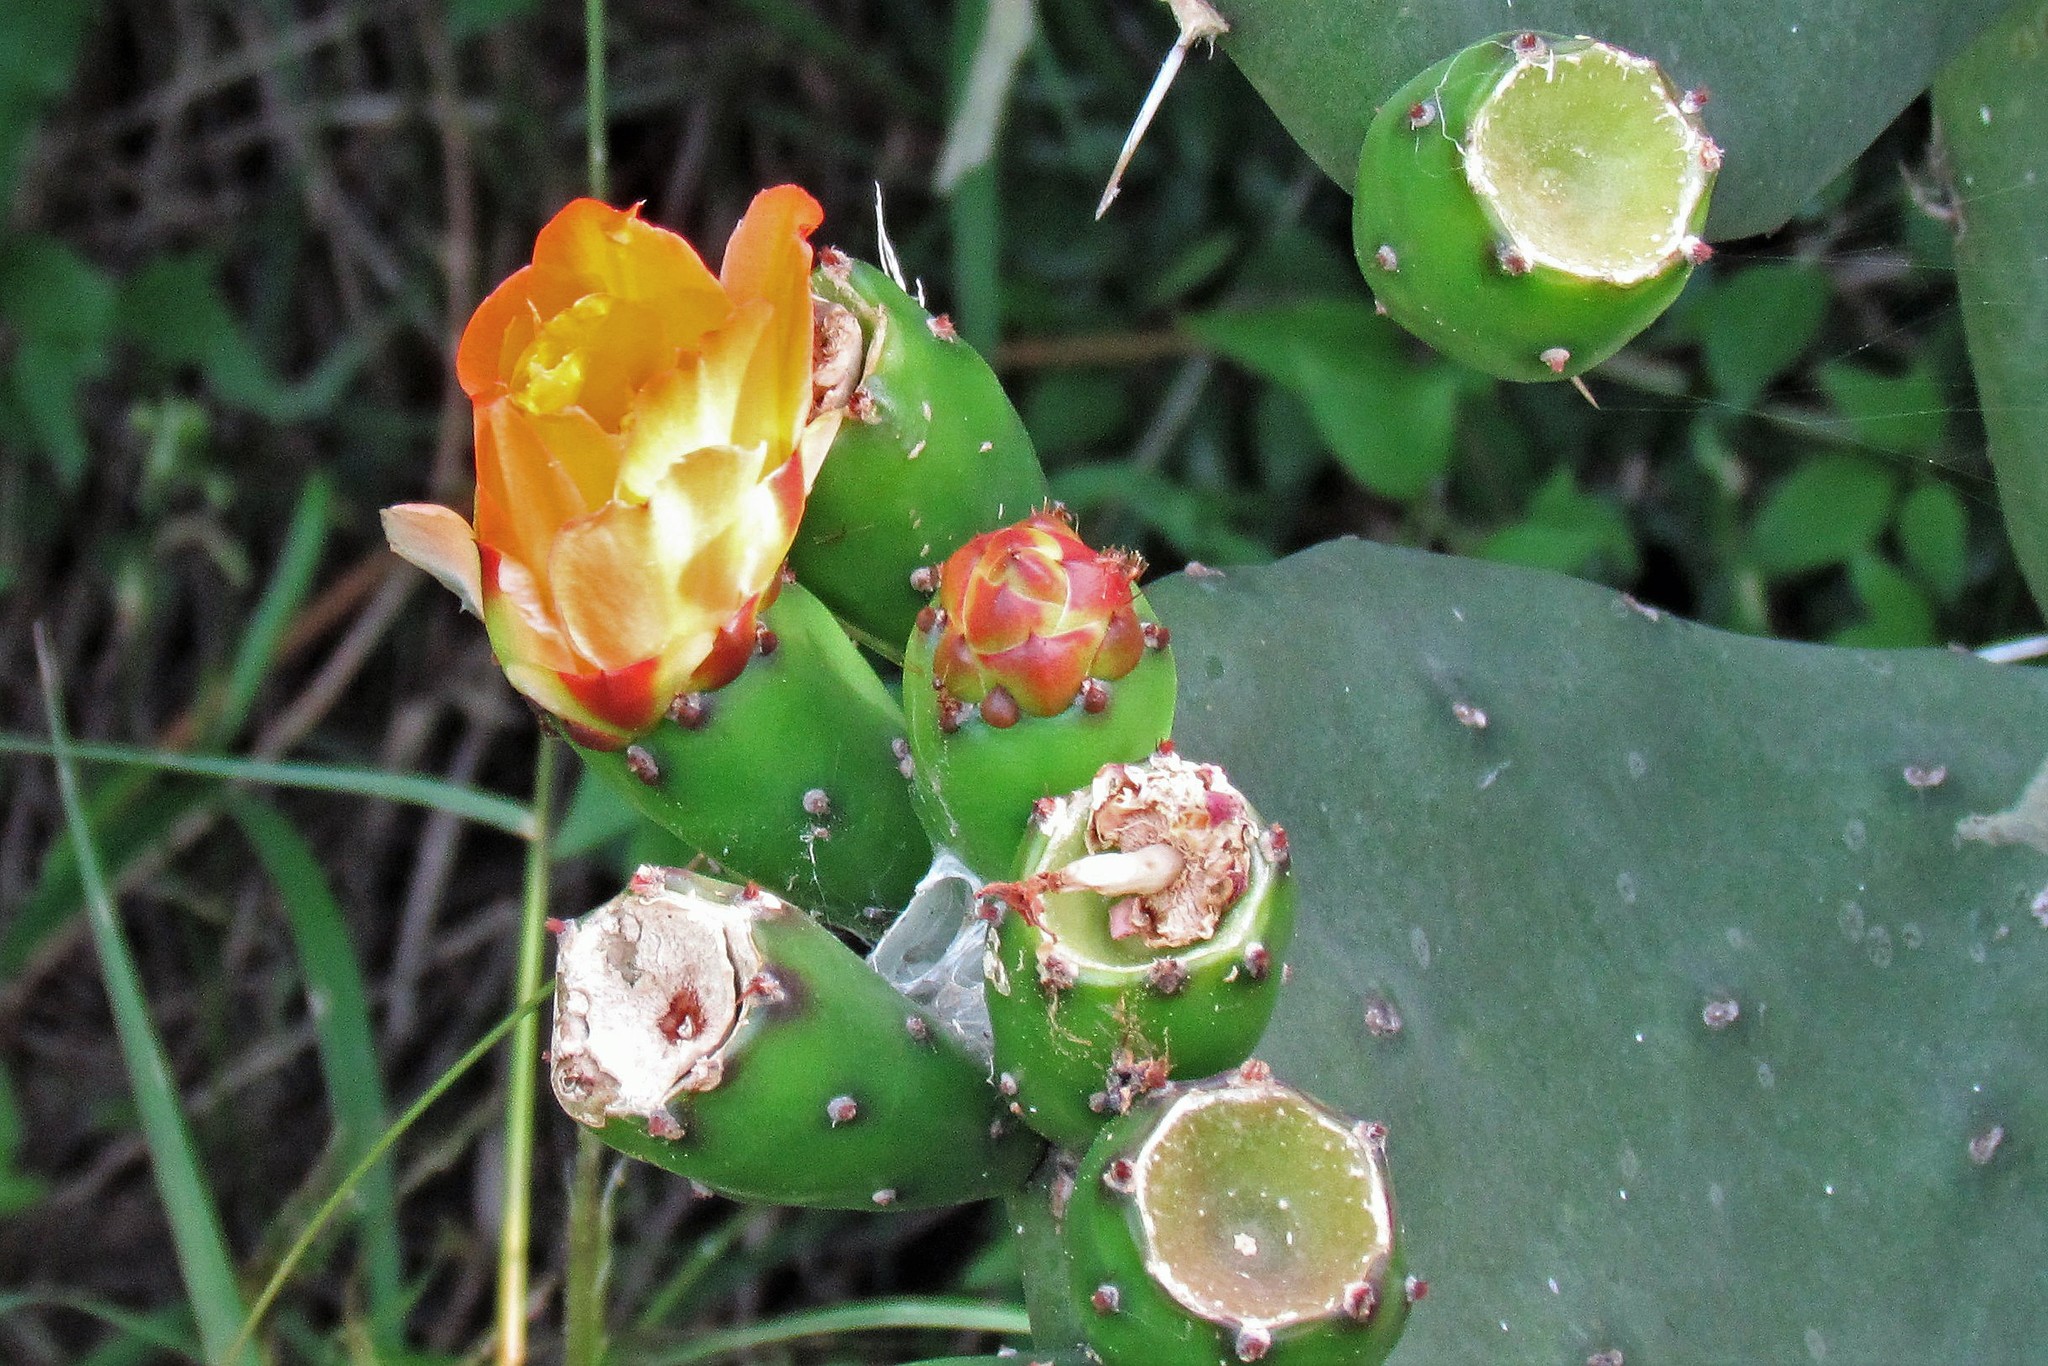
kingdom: Plantae
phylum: Tracheophyta
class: Magnoliopsida
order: Caryophyllales
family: Cactaceae
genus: Opuntia
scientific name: Opuntia elata
